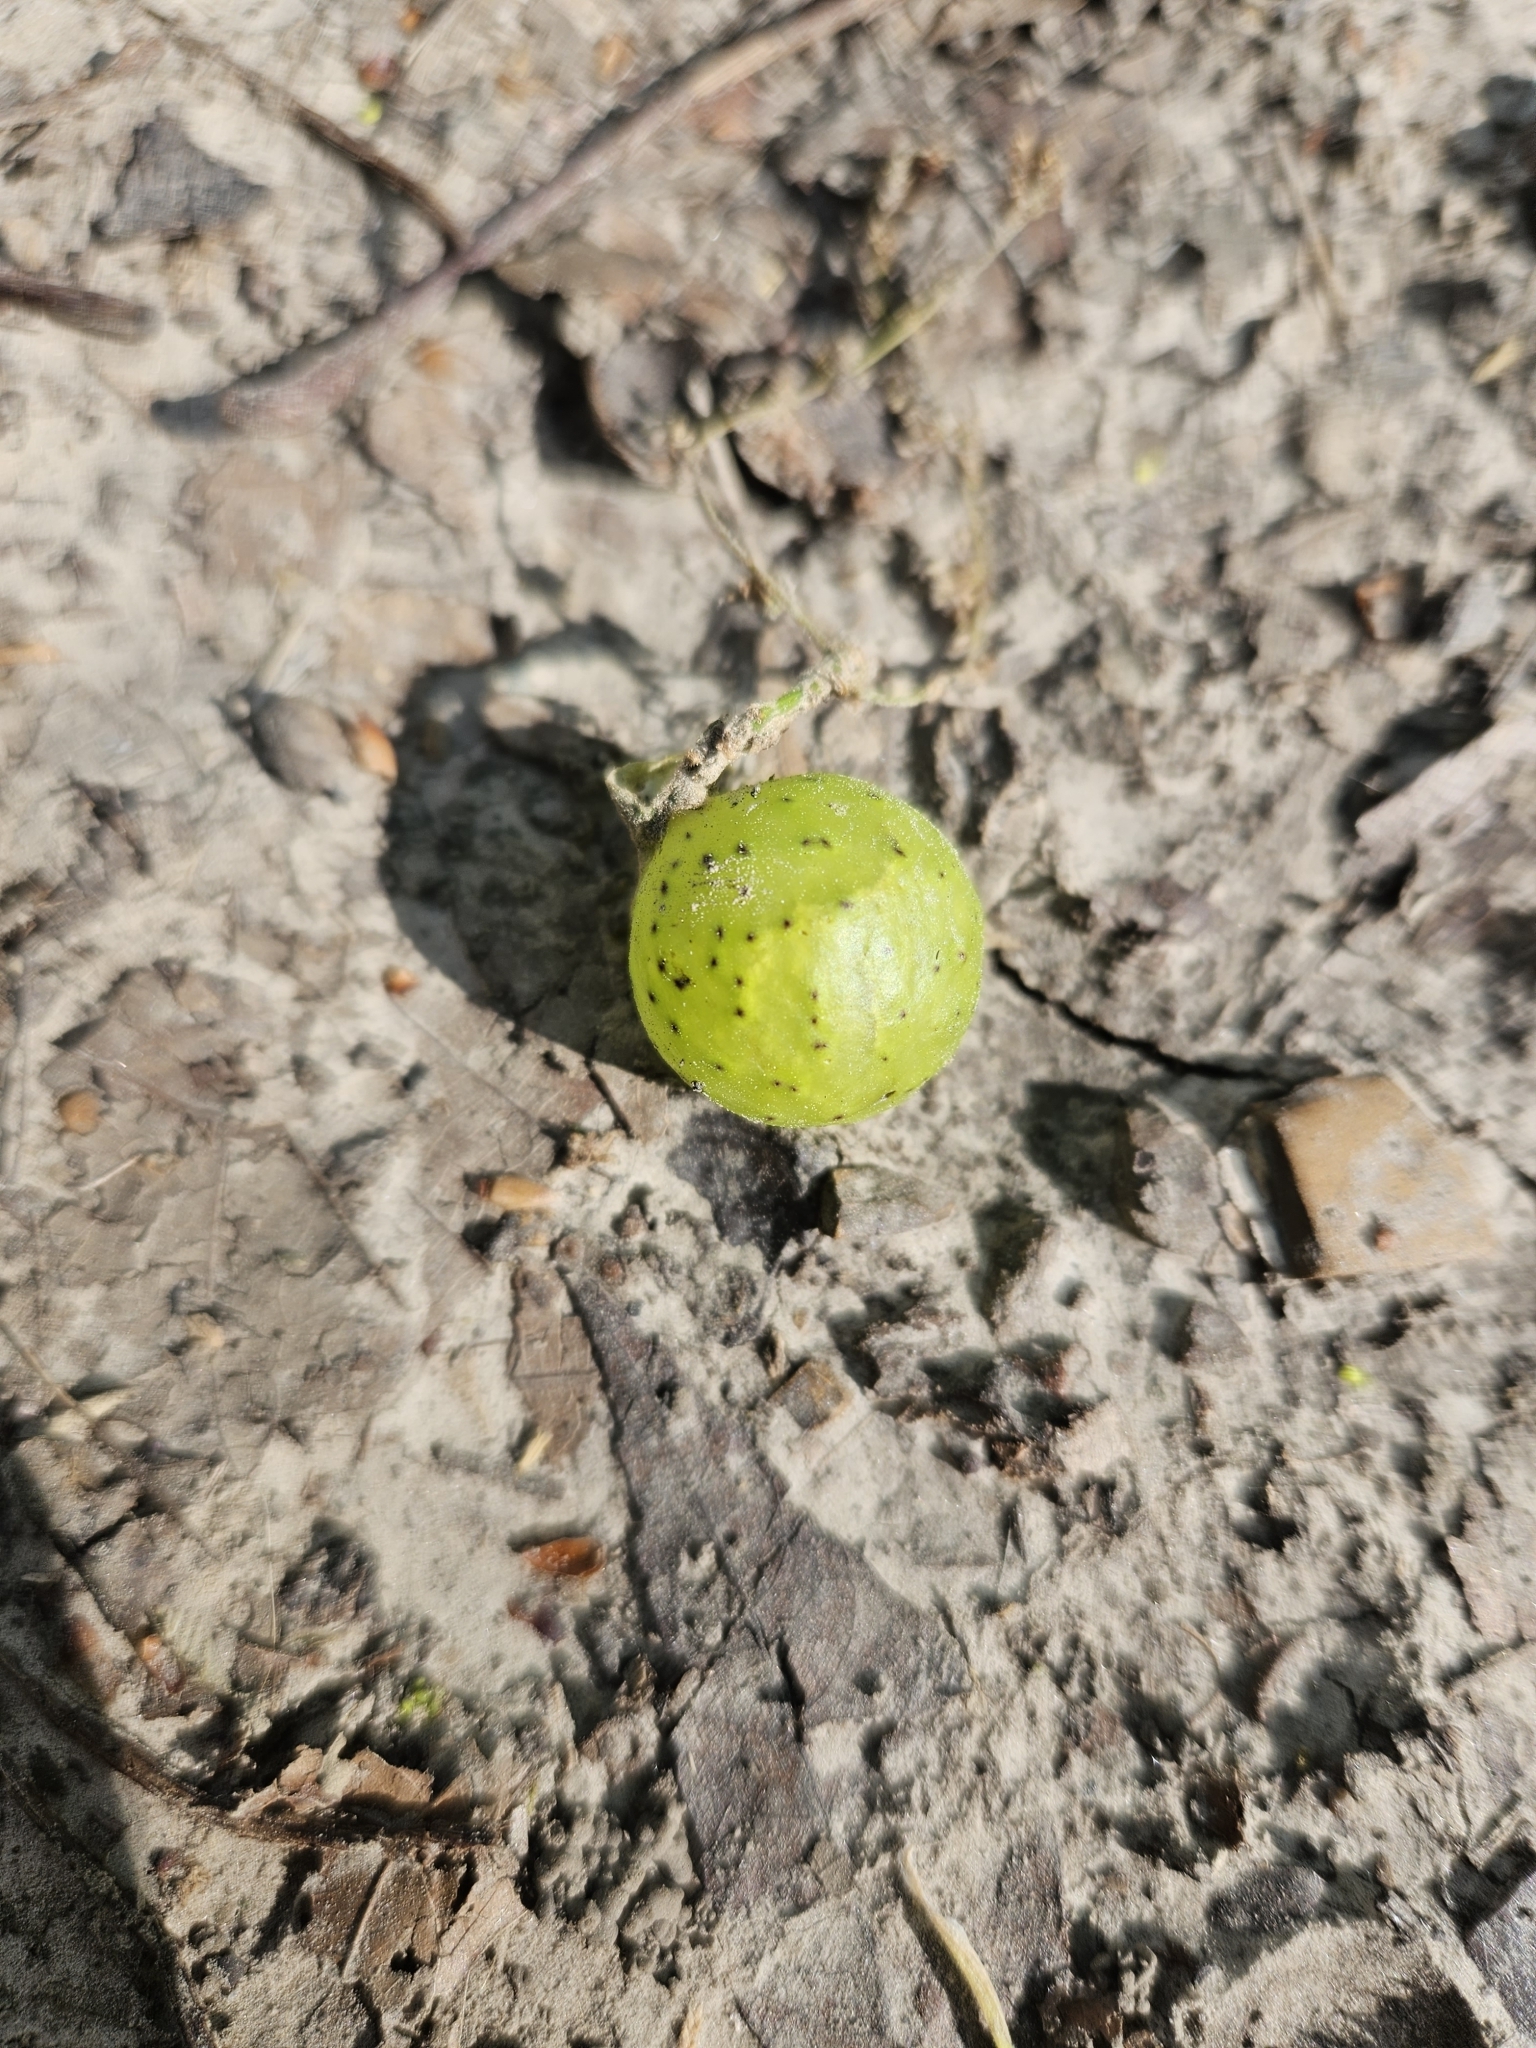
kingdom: Animalia
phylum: Arthropoda
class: Insecta
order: Hymenoptera
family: Cynipidae
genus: Amphibolips
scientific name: Amphibolips
